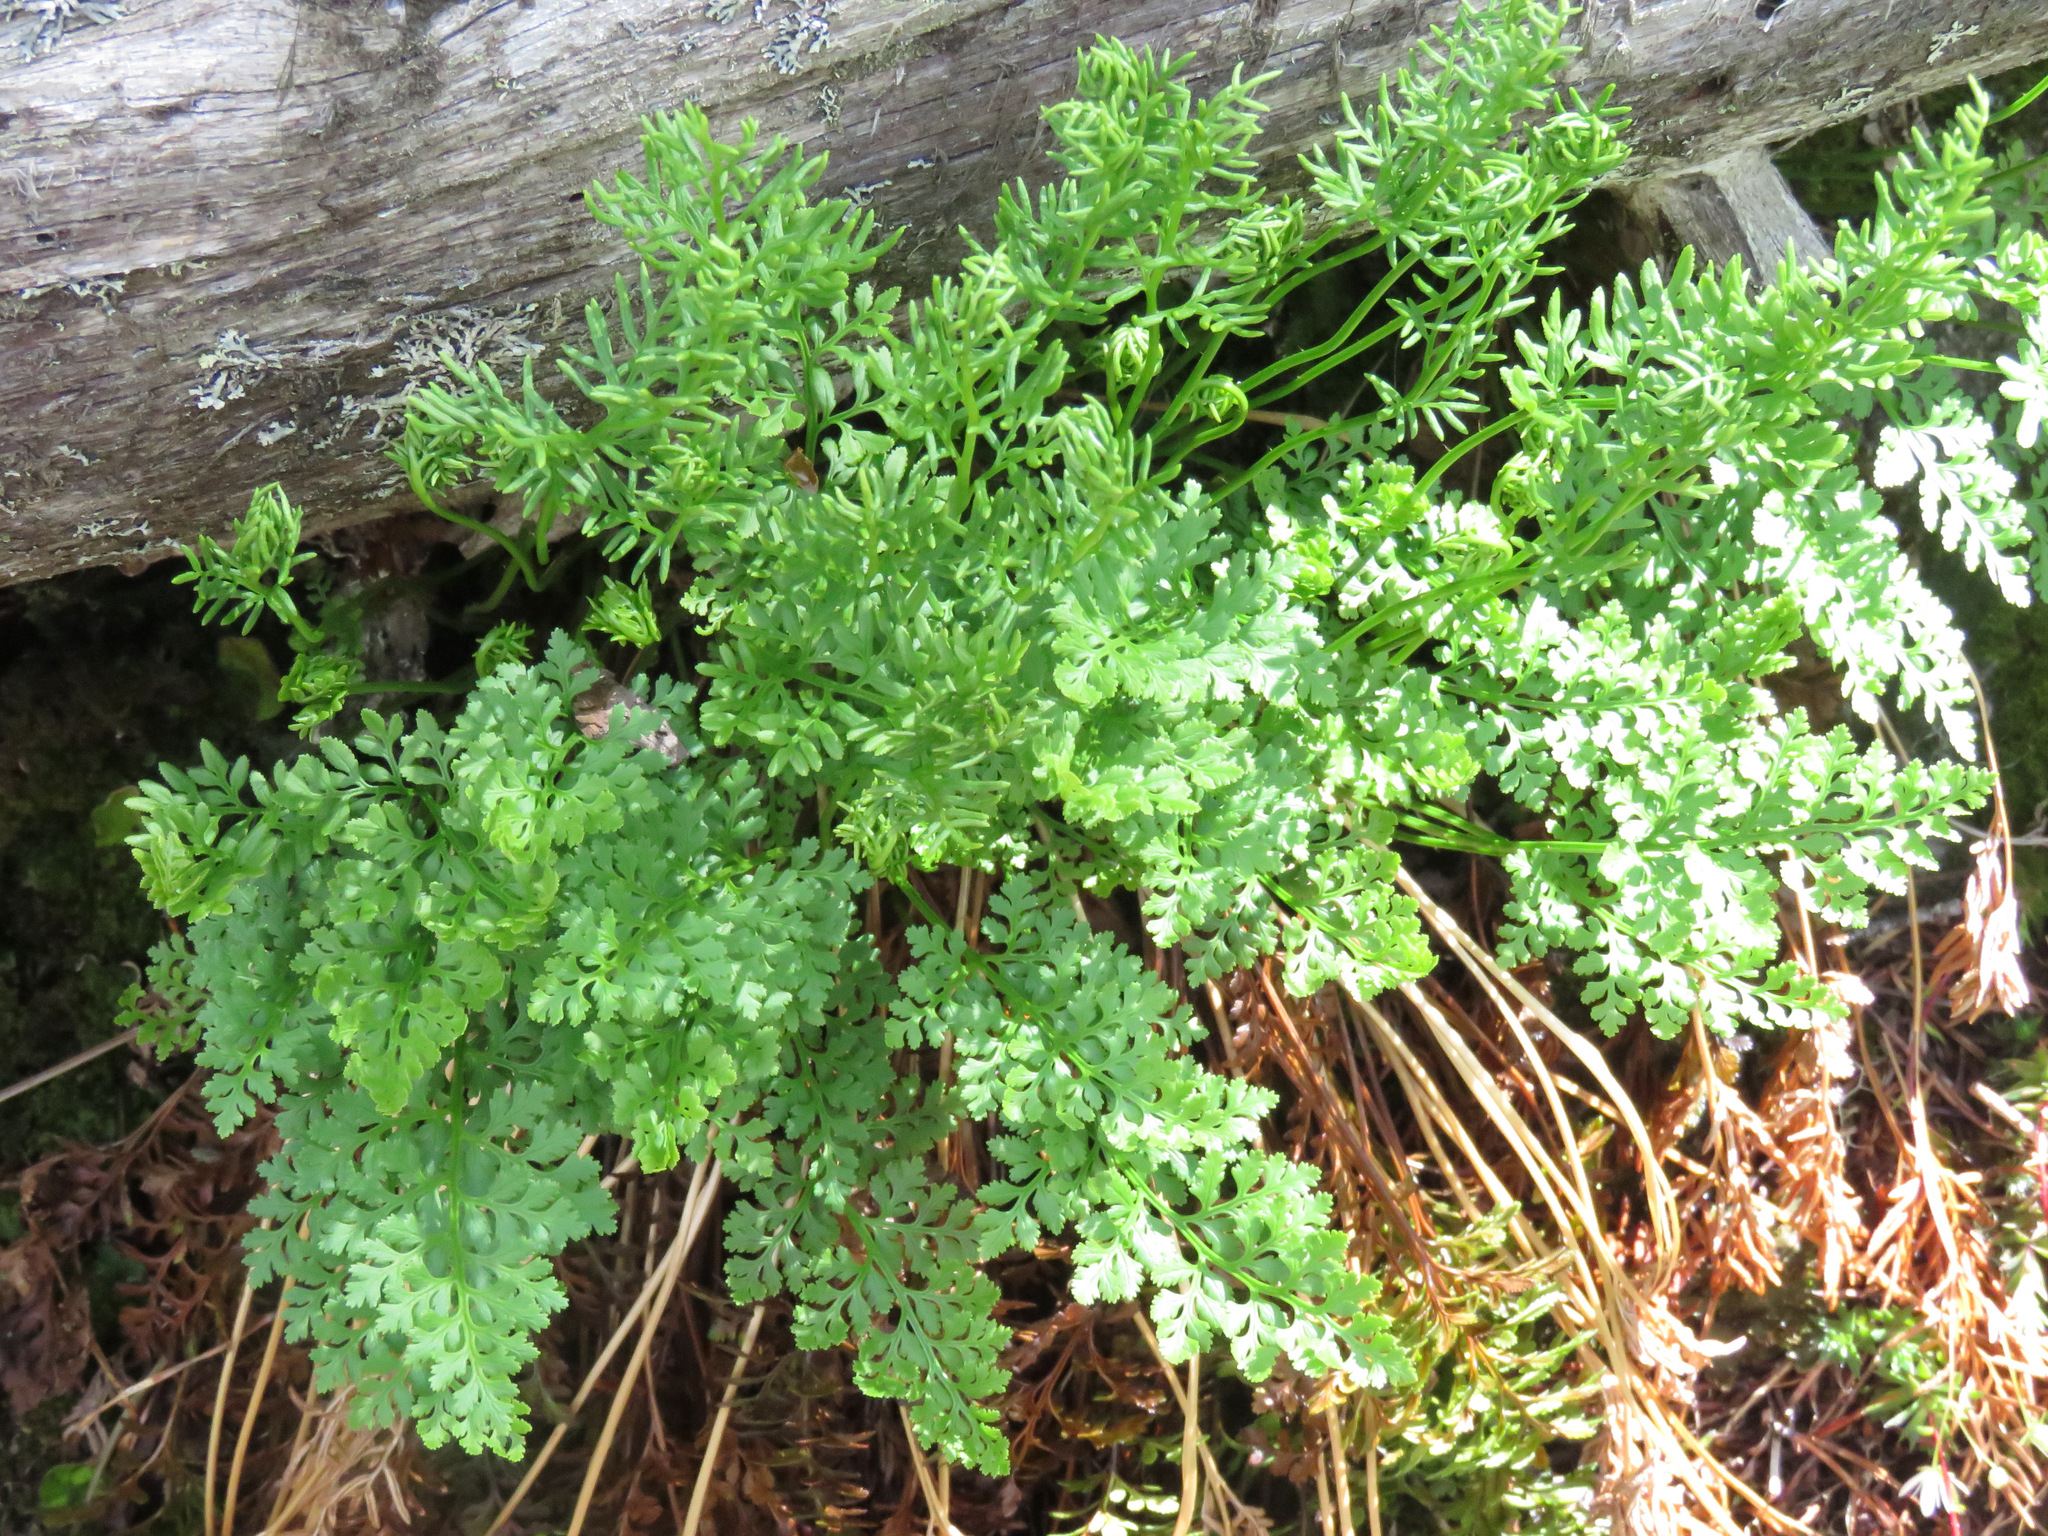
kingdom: Plantae
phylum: Tracheophyta
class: Polypodiopsida
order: Polypodiales
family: Pteridaceae
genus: Cryptogramma
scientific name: Cryptogramma acrostichoides
